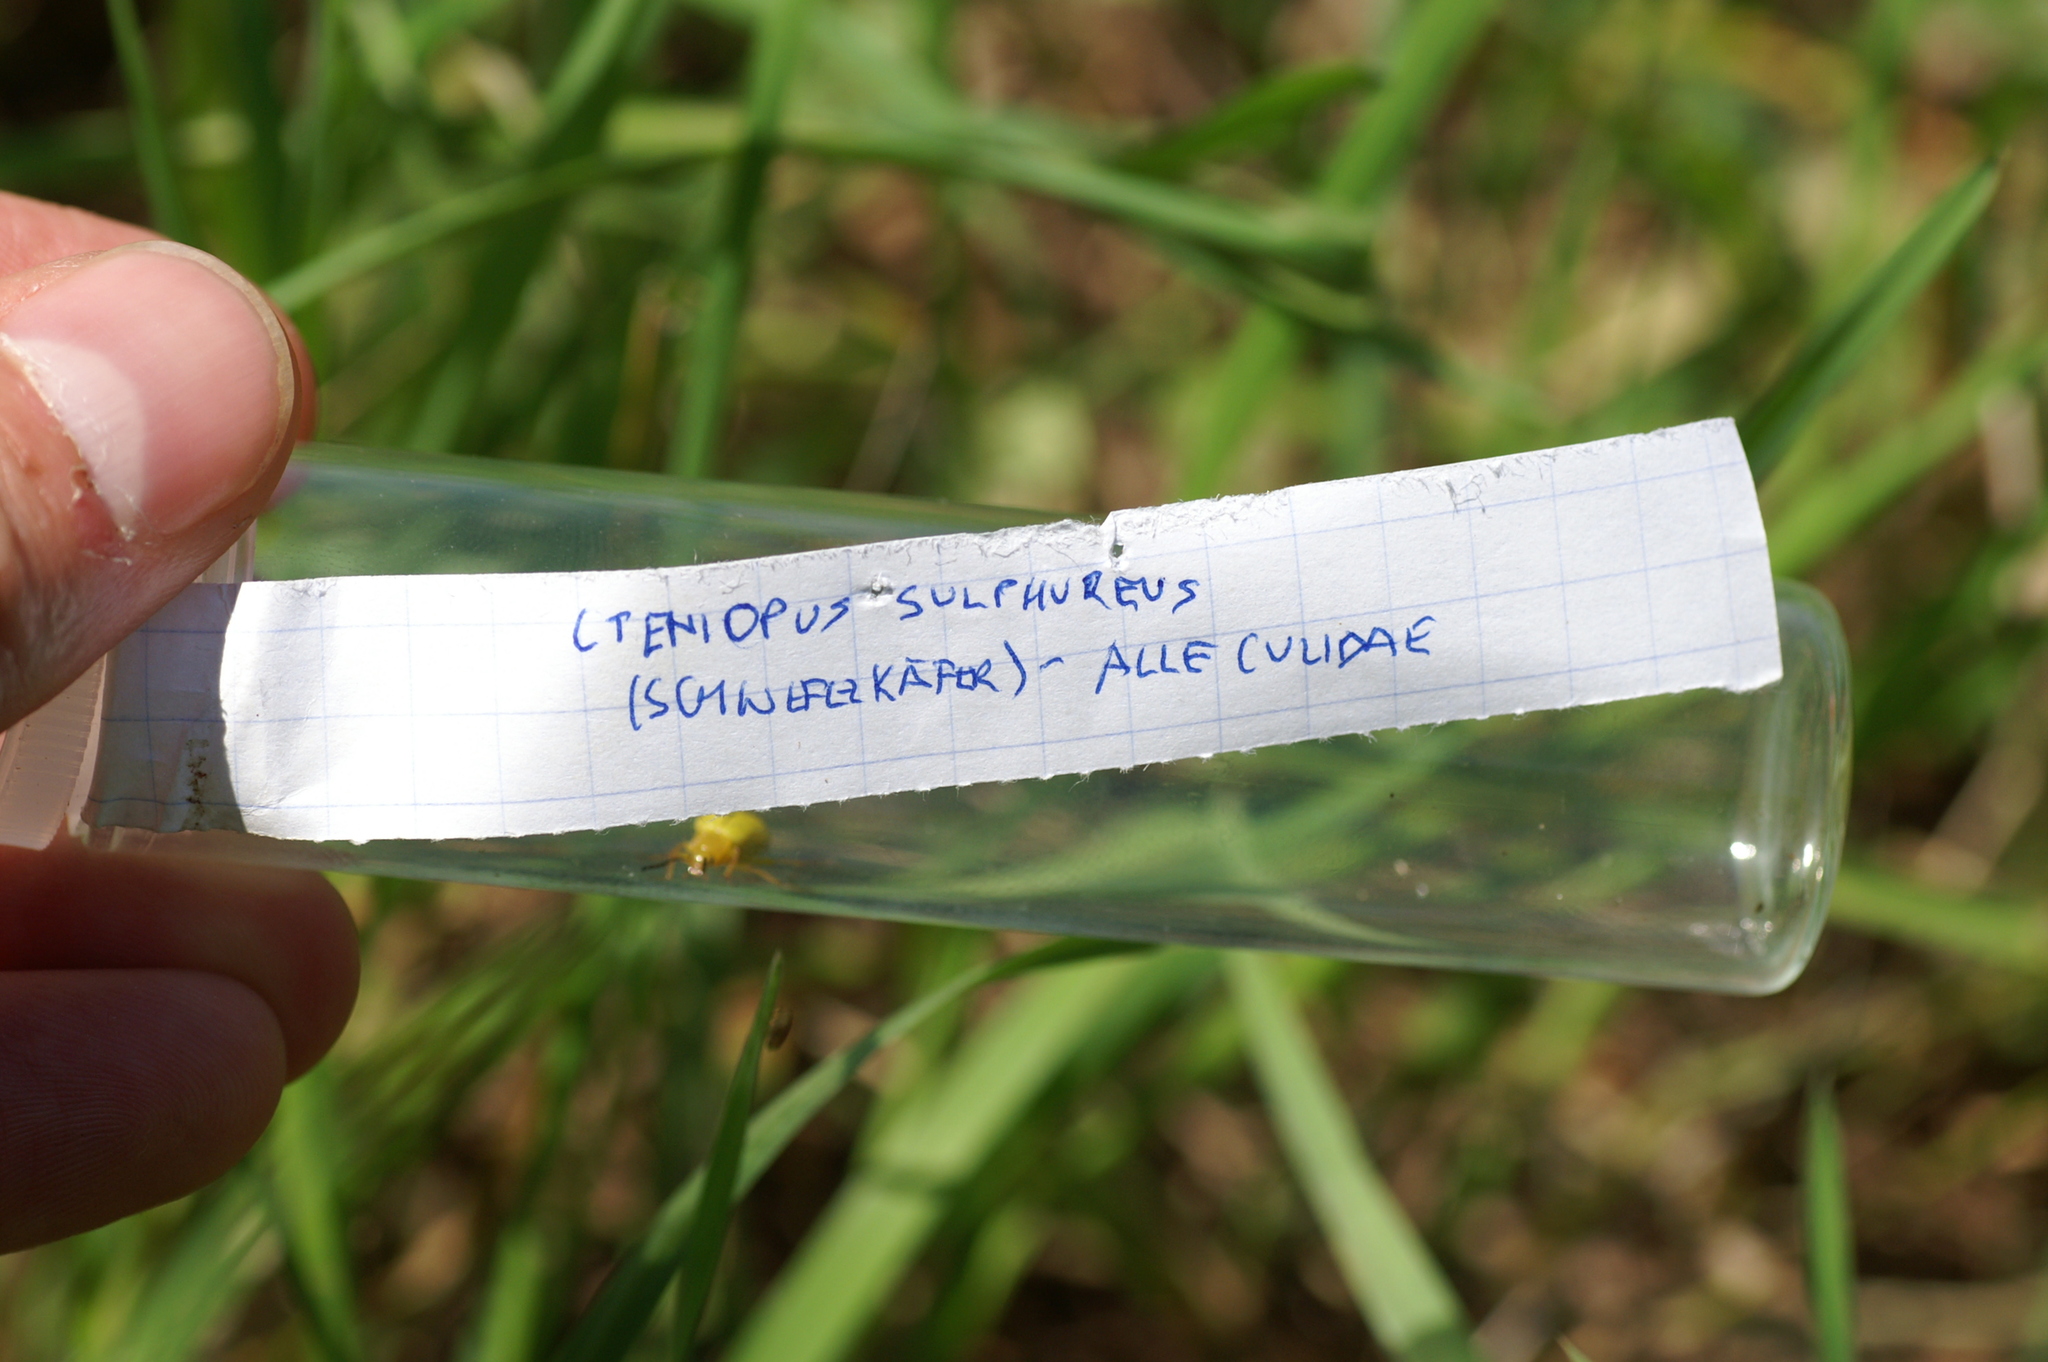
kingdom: Animalia
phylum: Arthropoda
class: Insecta
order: Coleoptera
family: Tenebrionidae
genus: Cteniopus
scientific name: Cteniopus sulphureus
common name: Sulphur beetle
